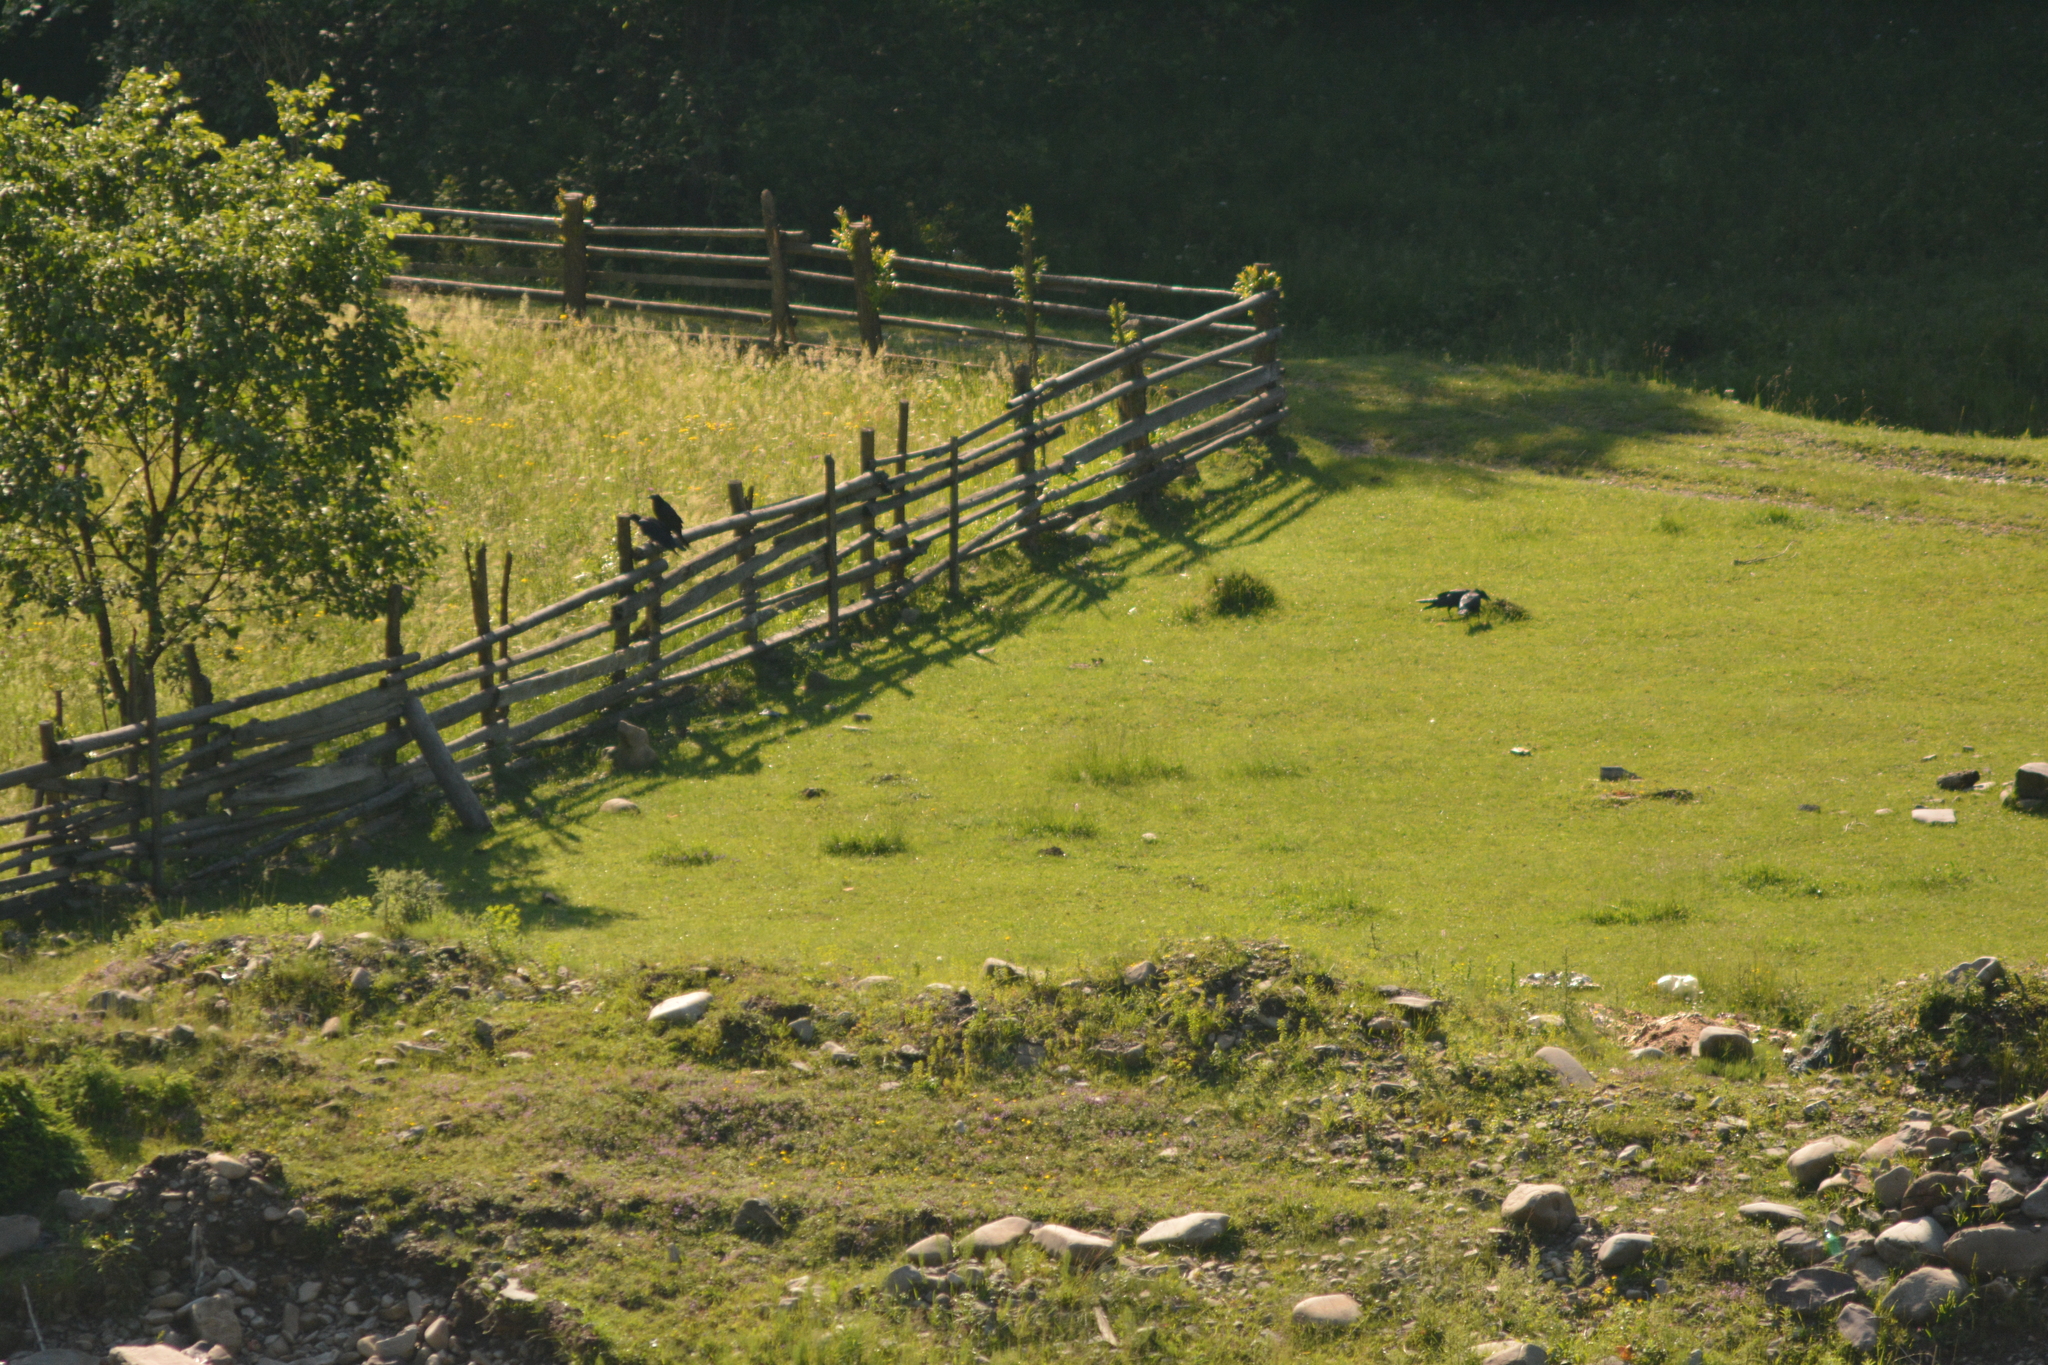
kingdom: Animalia
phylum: Chordata
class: Aves
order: Passeriformes
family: Corvidae
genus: Corvus
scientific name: Corvus corax
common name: Common raven
